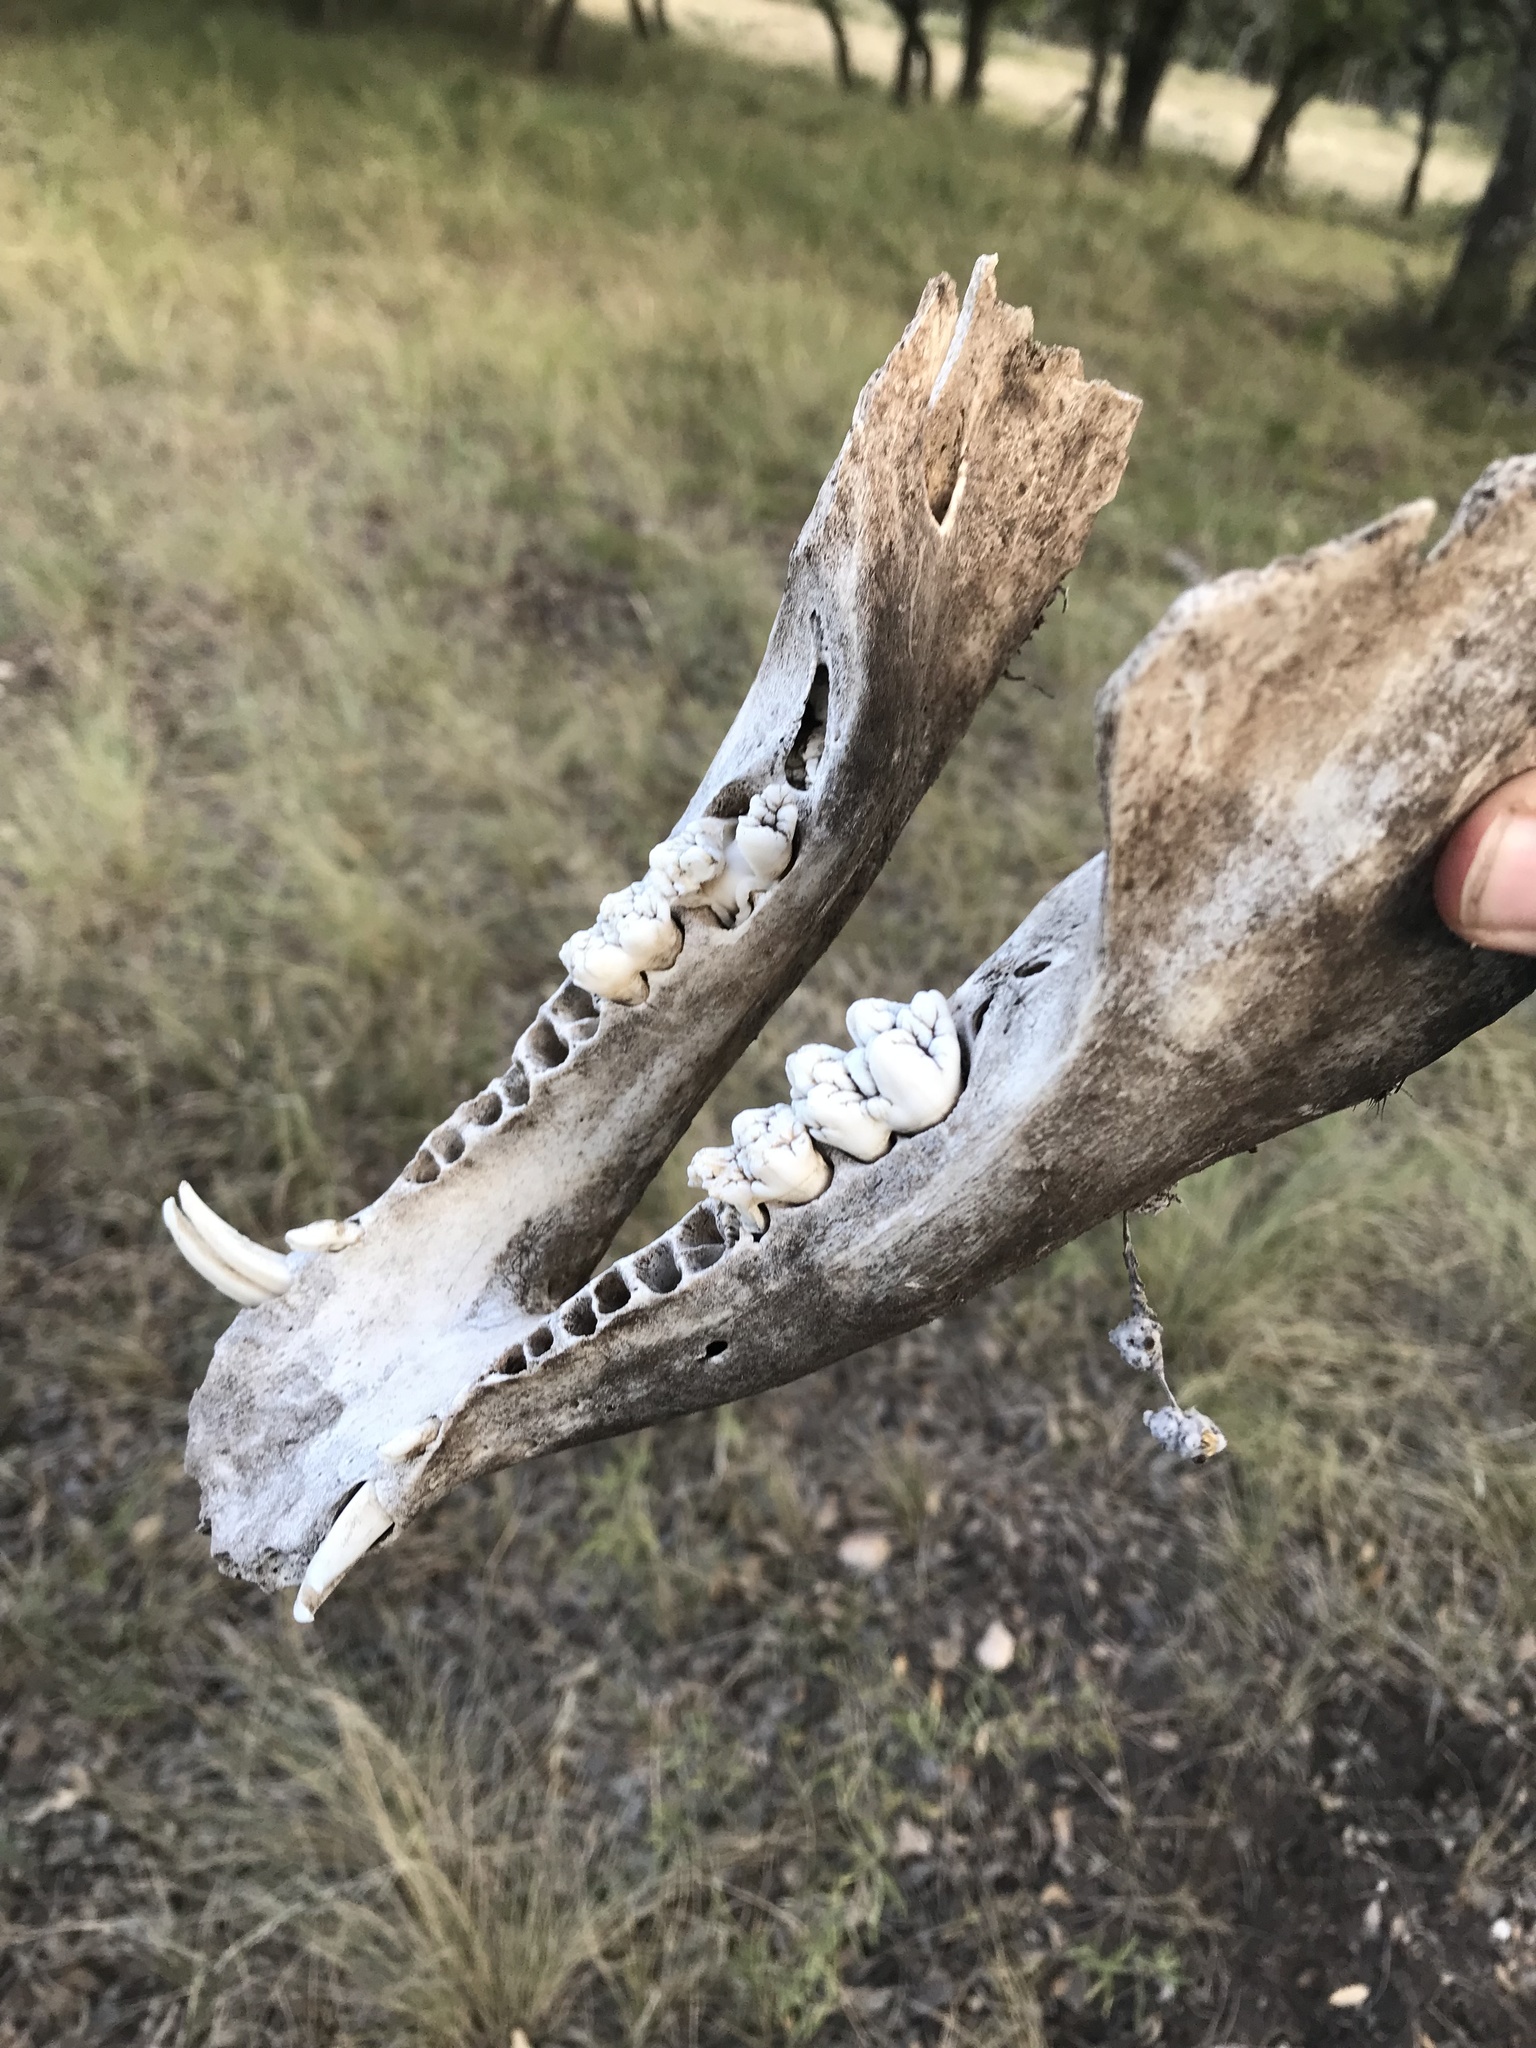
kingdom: Animalia
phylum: Chordata
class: Mammalia
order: Artiodactyla
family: Suidae
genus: Sus
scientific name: Sus scrofa
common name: Wild boar
